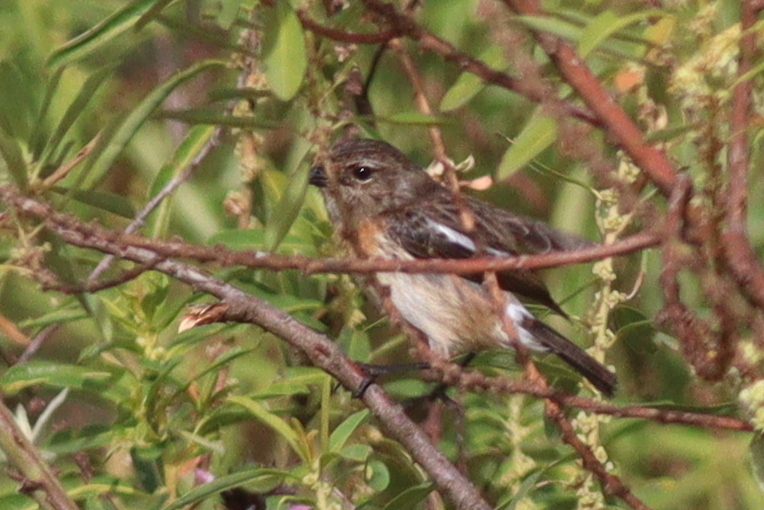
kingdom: Animalia
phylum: Chordata
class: Aves
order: Passeriformes
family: Muscicapidae
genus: Saxicola
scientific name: Saxicola torquatus
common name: African stonechat
